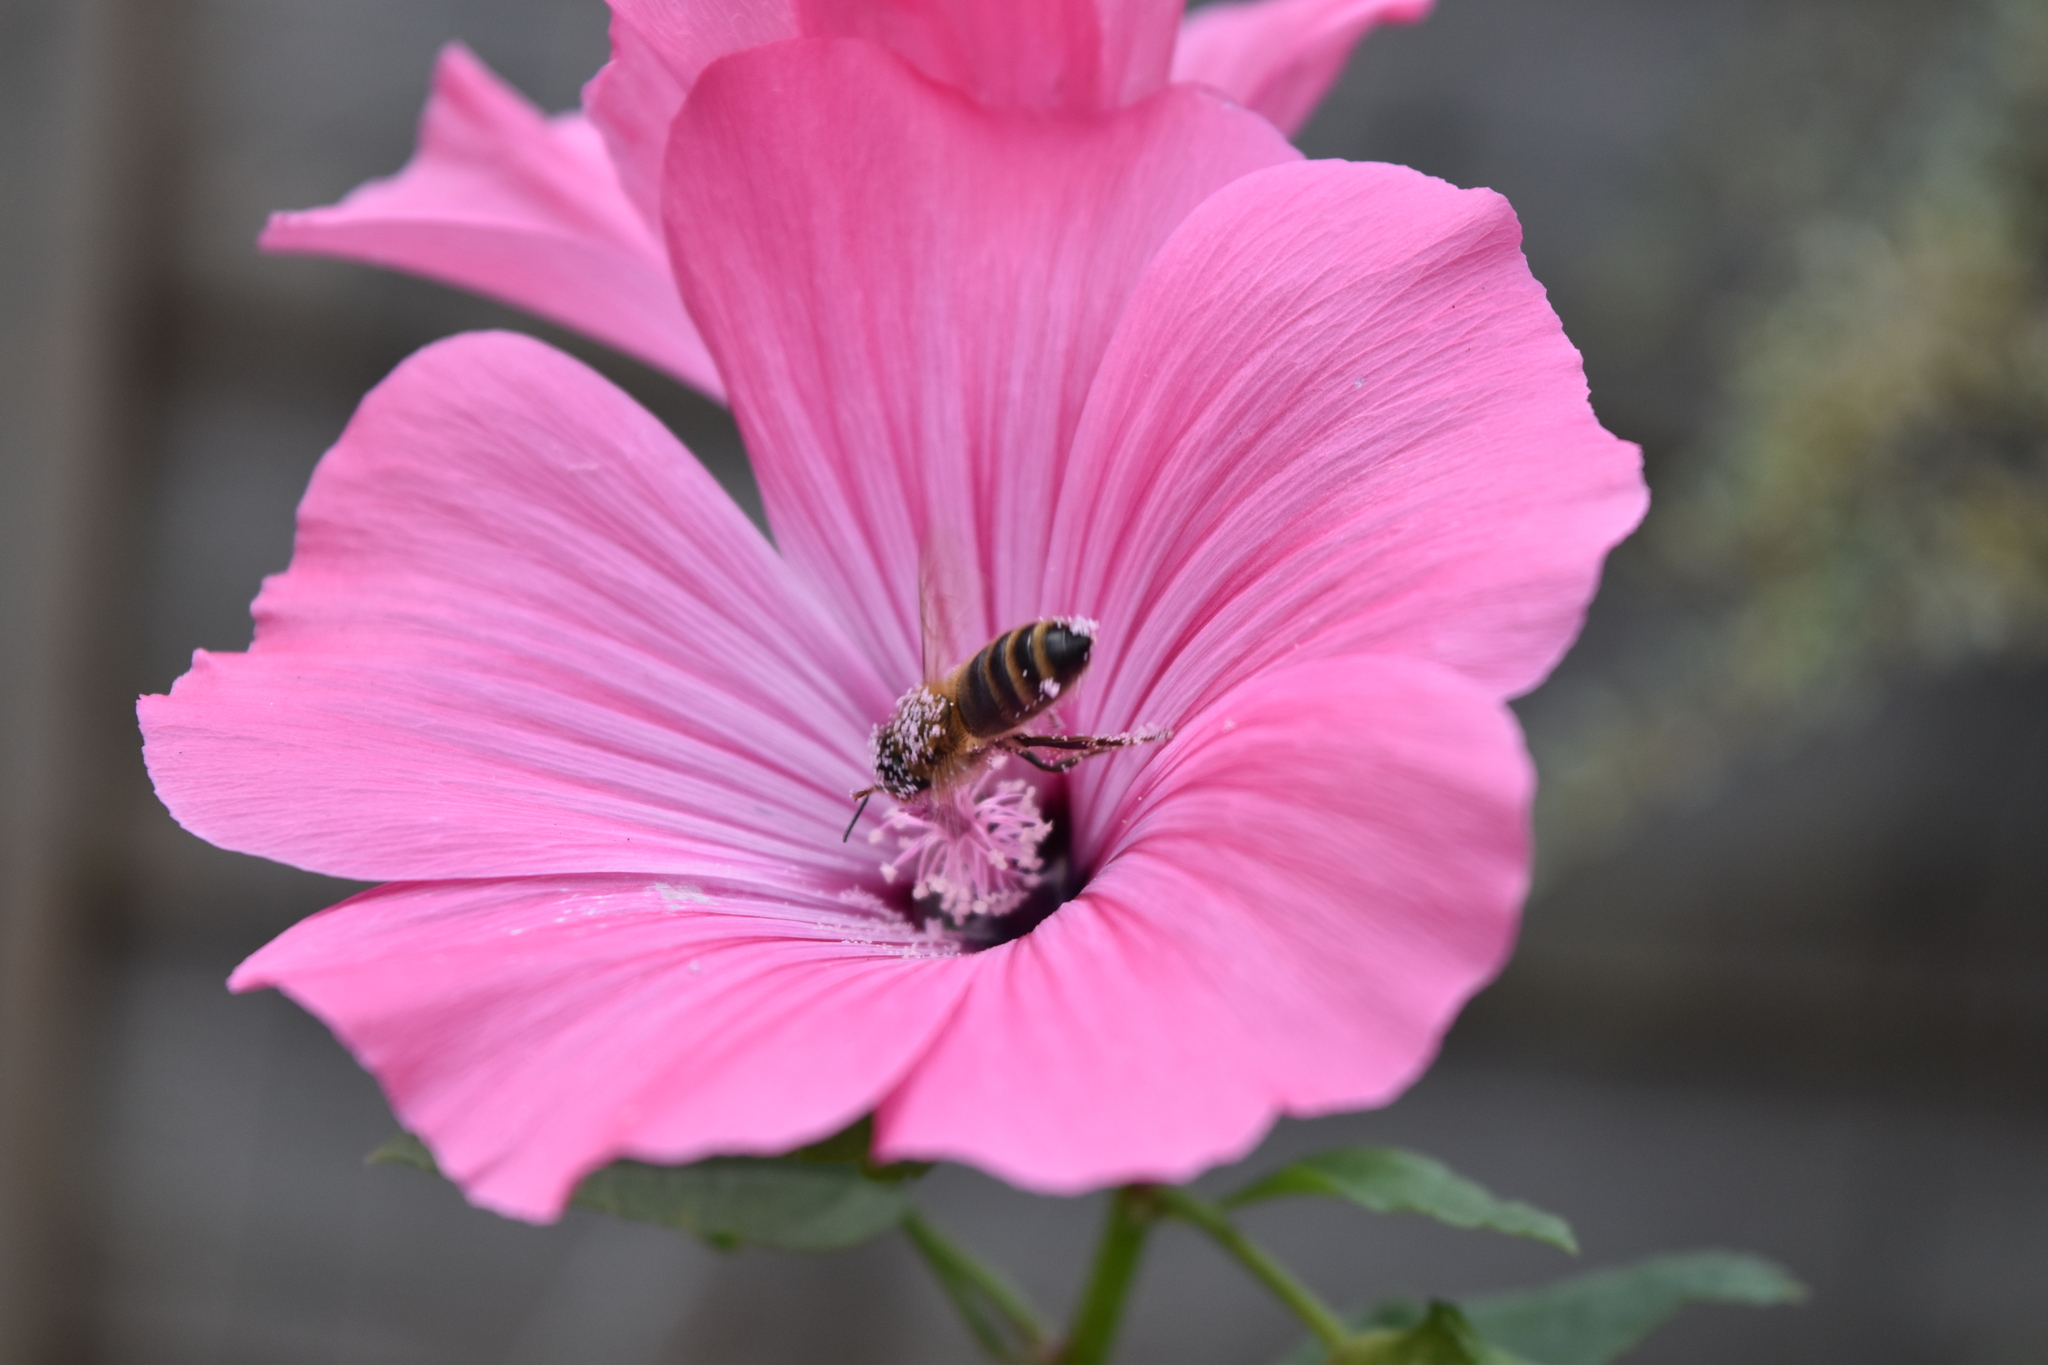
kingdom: Animalia
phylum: Arthropoda
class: Insecta
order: Hymenoptera
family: Apidae
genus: Apis
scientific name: Apis mellifera
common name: Honey bee
